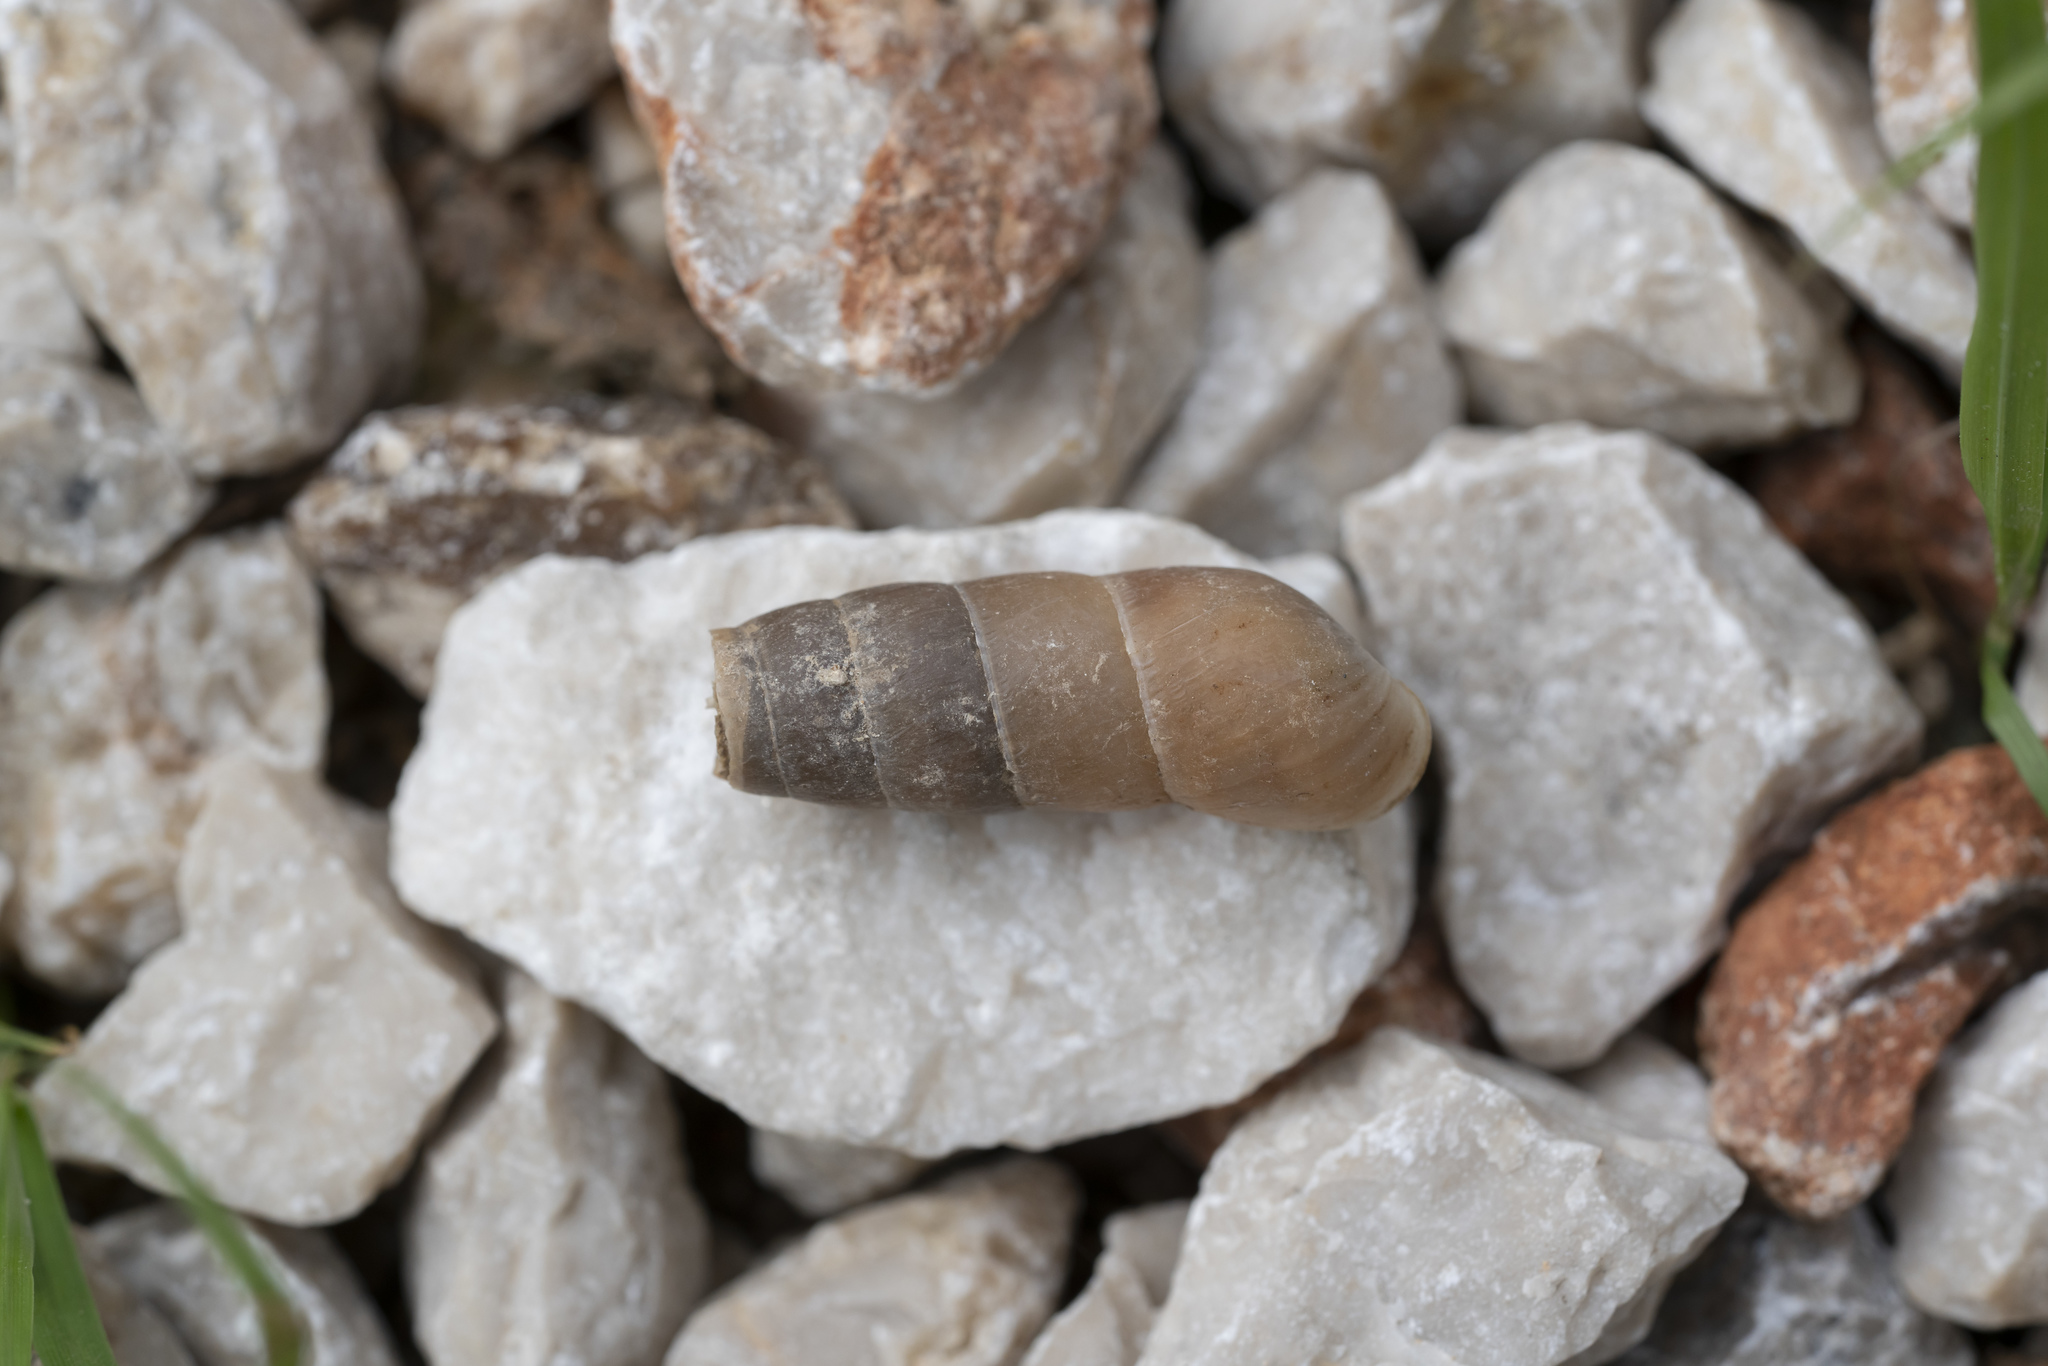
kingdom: Animalia
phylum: Mollusca
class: Gastropoda
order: Stylommatophora
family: Achatinidae
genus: Rumina
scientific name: Rumina saharica
